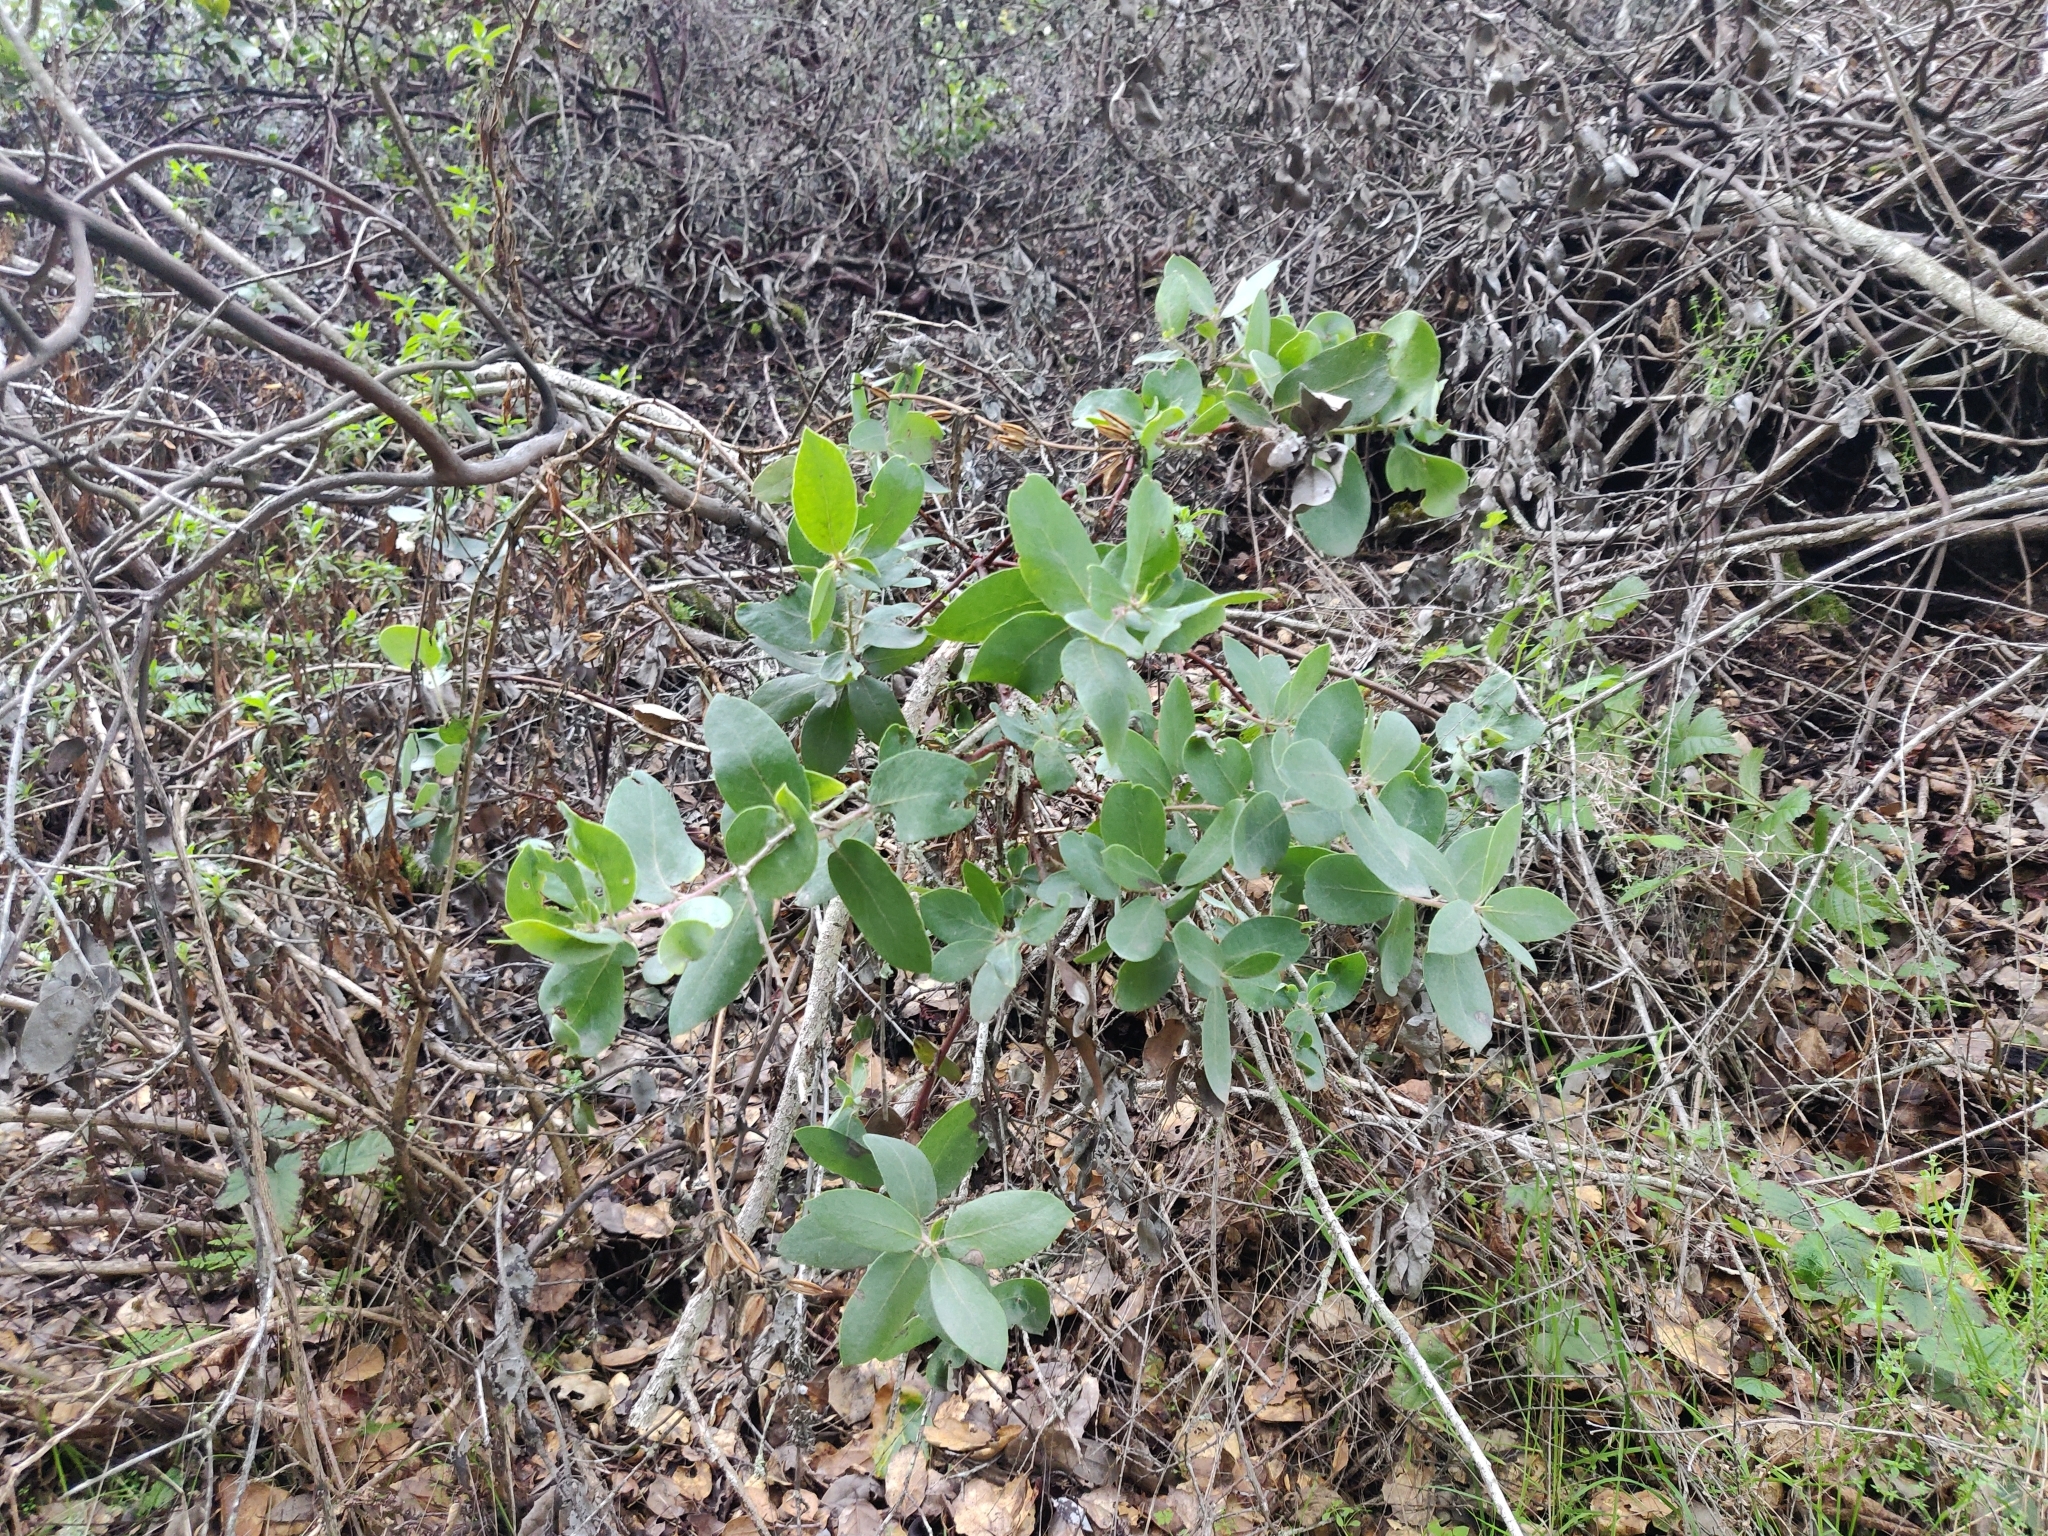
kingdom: Plantae
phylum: Tracheophyta
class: Magnoliopsida
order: Ericales
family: Ericaceae
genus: Arctostaphylos
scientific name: Arctostaphylos crustacea
